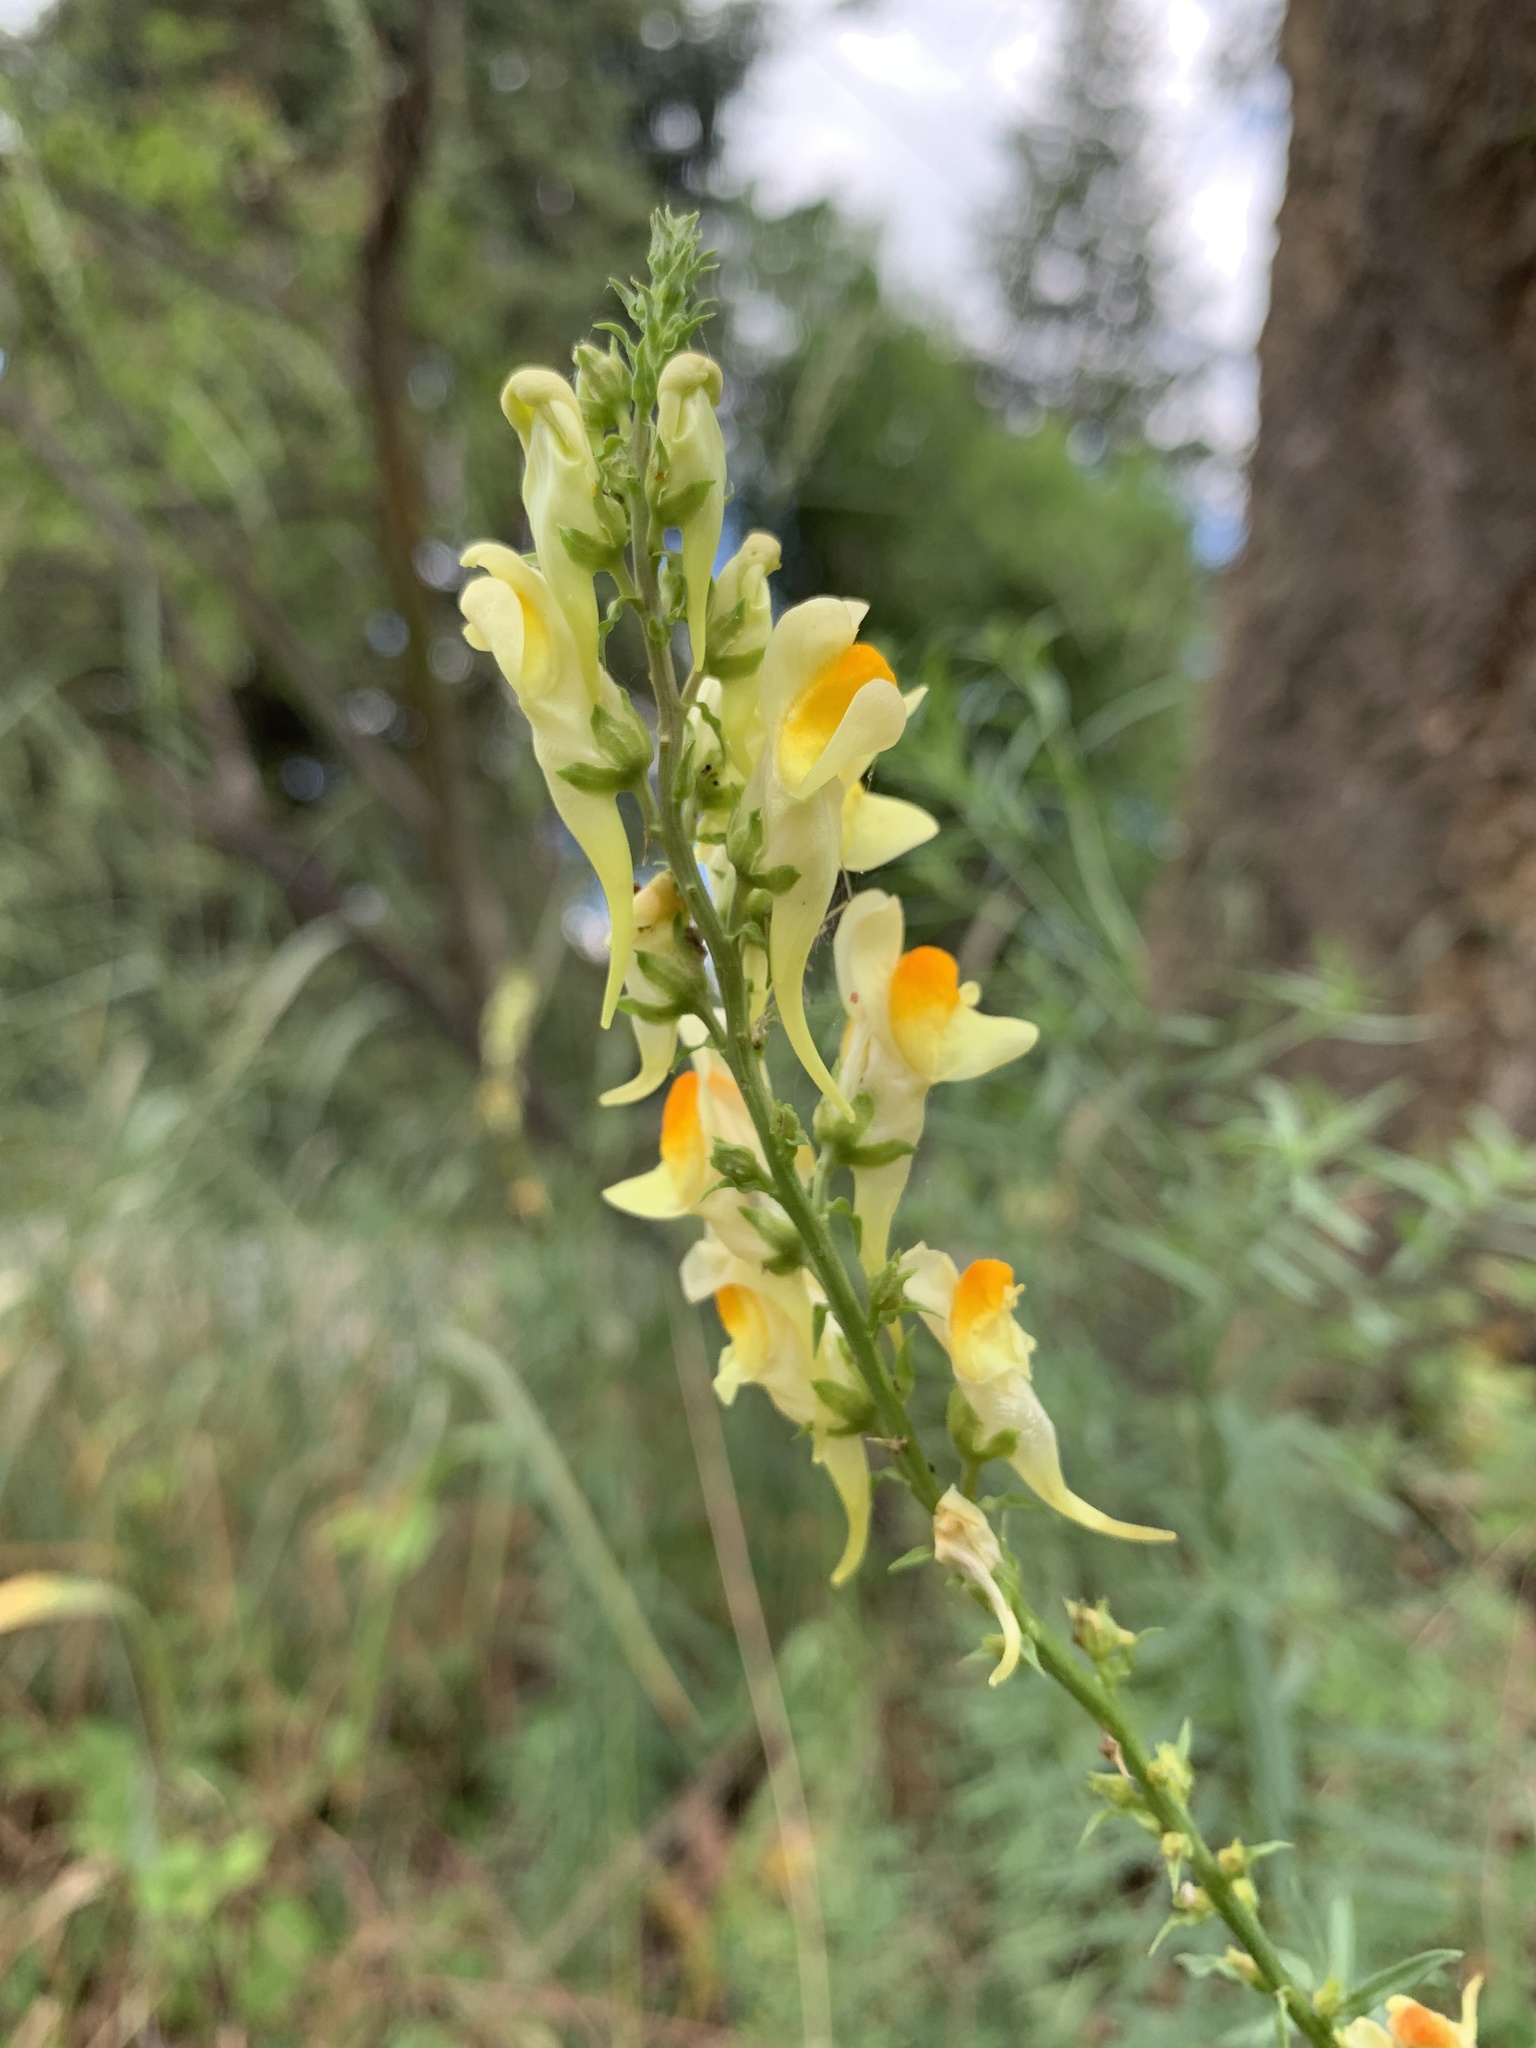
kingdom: Plantae
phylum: Tracheophyta
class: Magnoliopsida
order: Lamiales
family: Plantaginaceae
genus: Linaria
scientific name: Linaria vulgaris
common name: Butter and eggs
